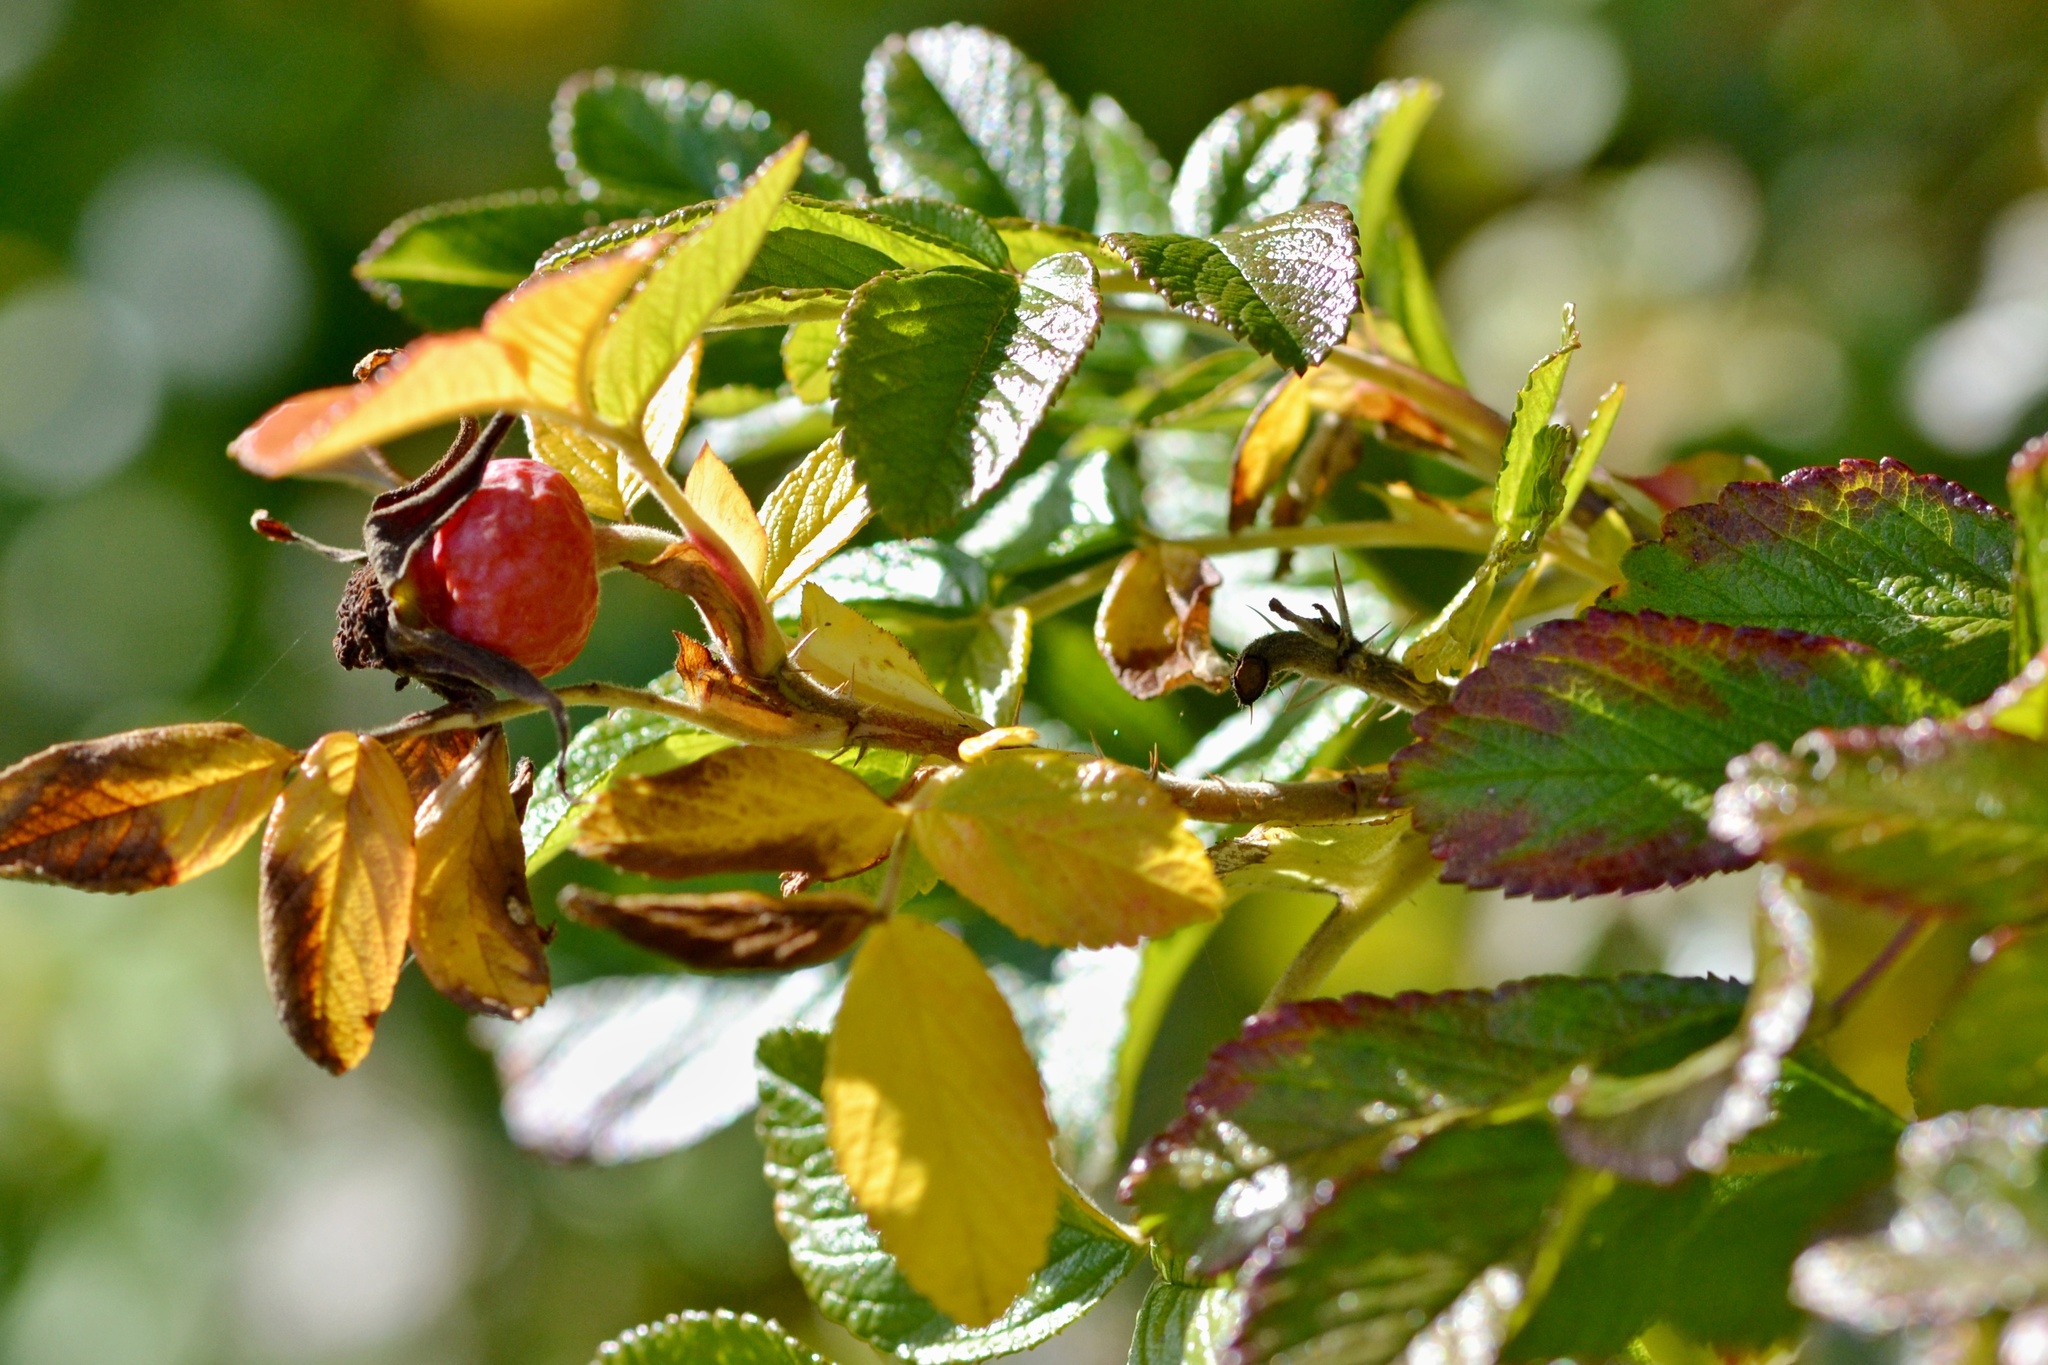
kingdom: Plantae
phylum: Tracheophyta
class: Magnoliopsida
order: Rosales
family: Rosaceae
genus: Rosa
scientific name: Rosa rugosa
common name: Japanese rose
